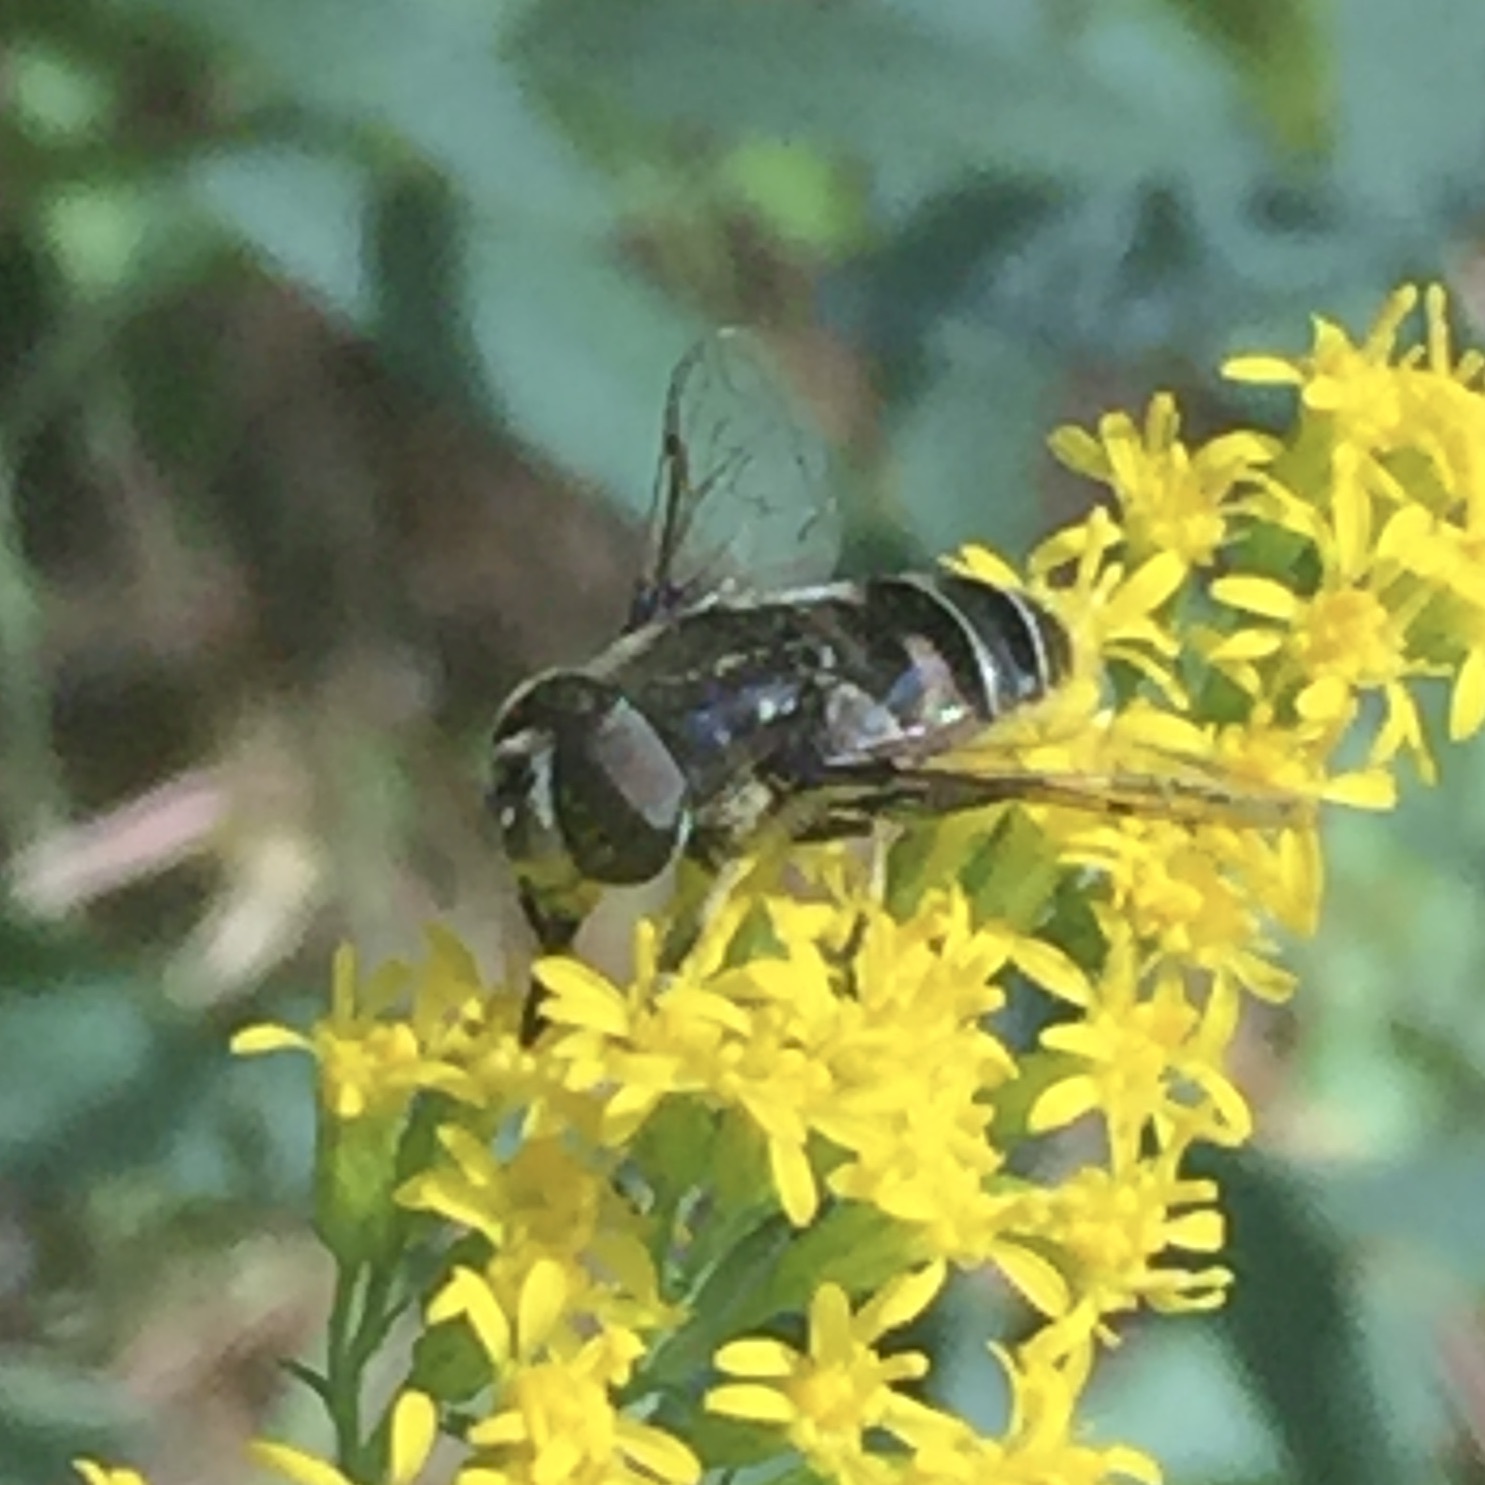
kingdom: Animalia
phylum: Arthropoda
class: Insecta
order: Diptera
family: Syrphidae
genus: Eristalis
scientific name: Eristalis dimidiata
